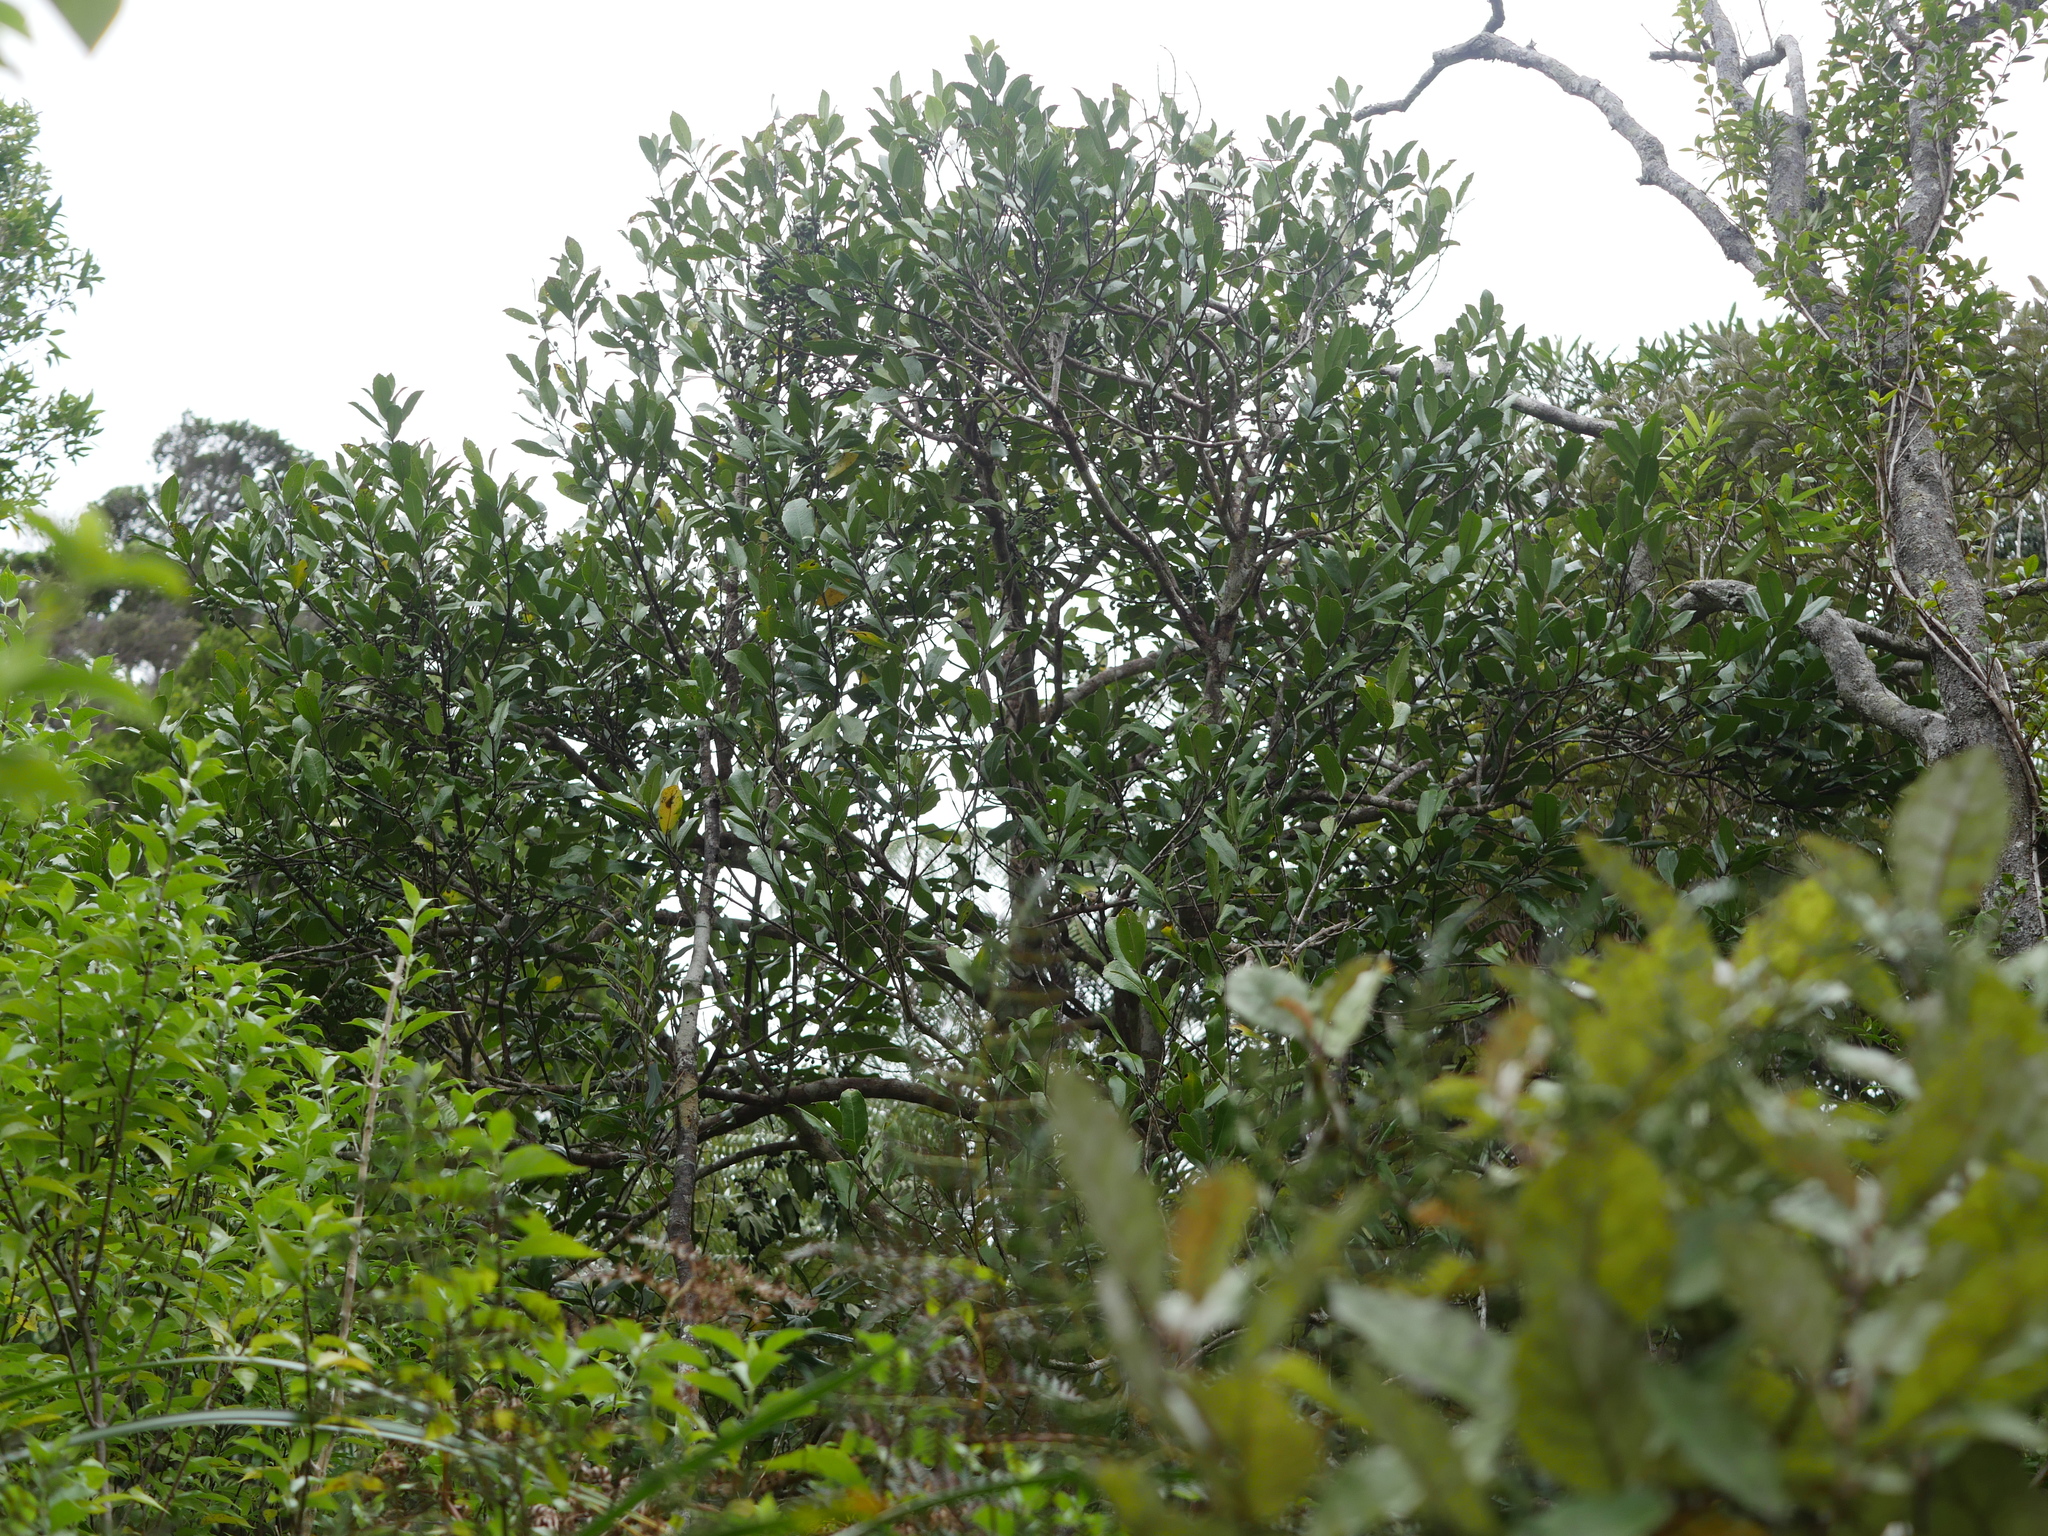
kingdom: Plantae
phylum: Tracheophyta
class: Magnoliopsida
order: Laurales
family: Monimiaceae
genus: Hedycarya
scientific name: Hedycarya arborea
